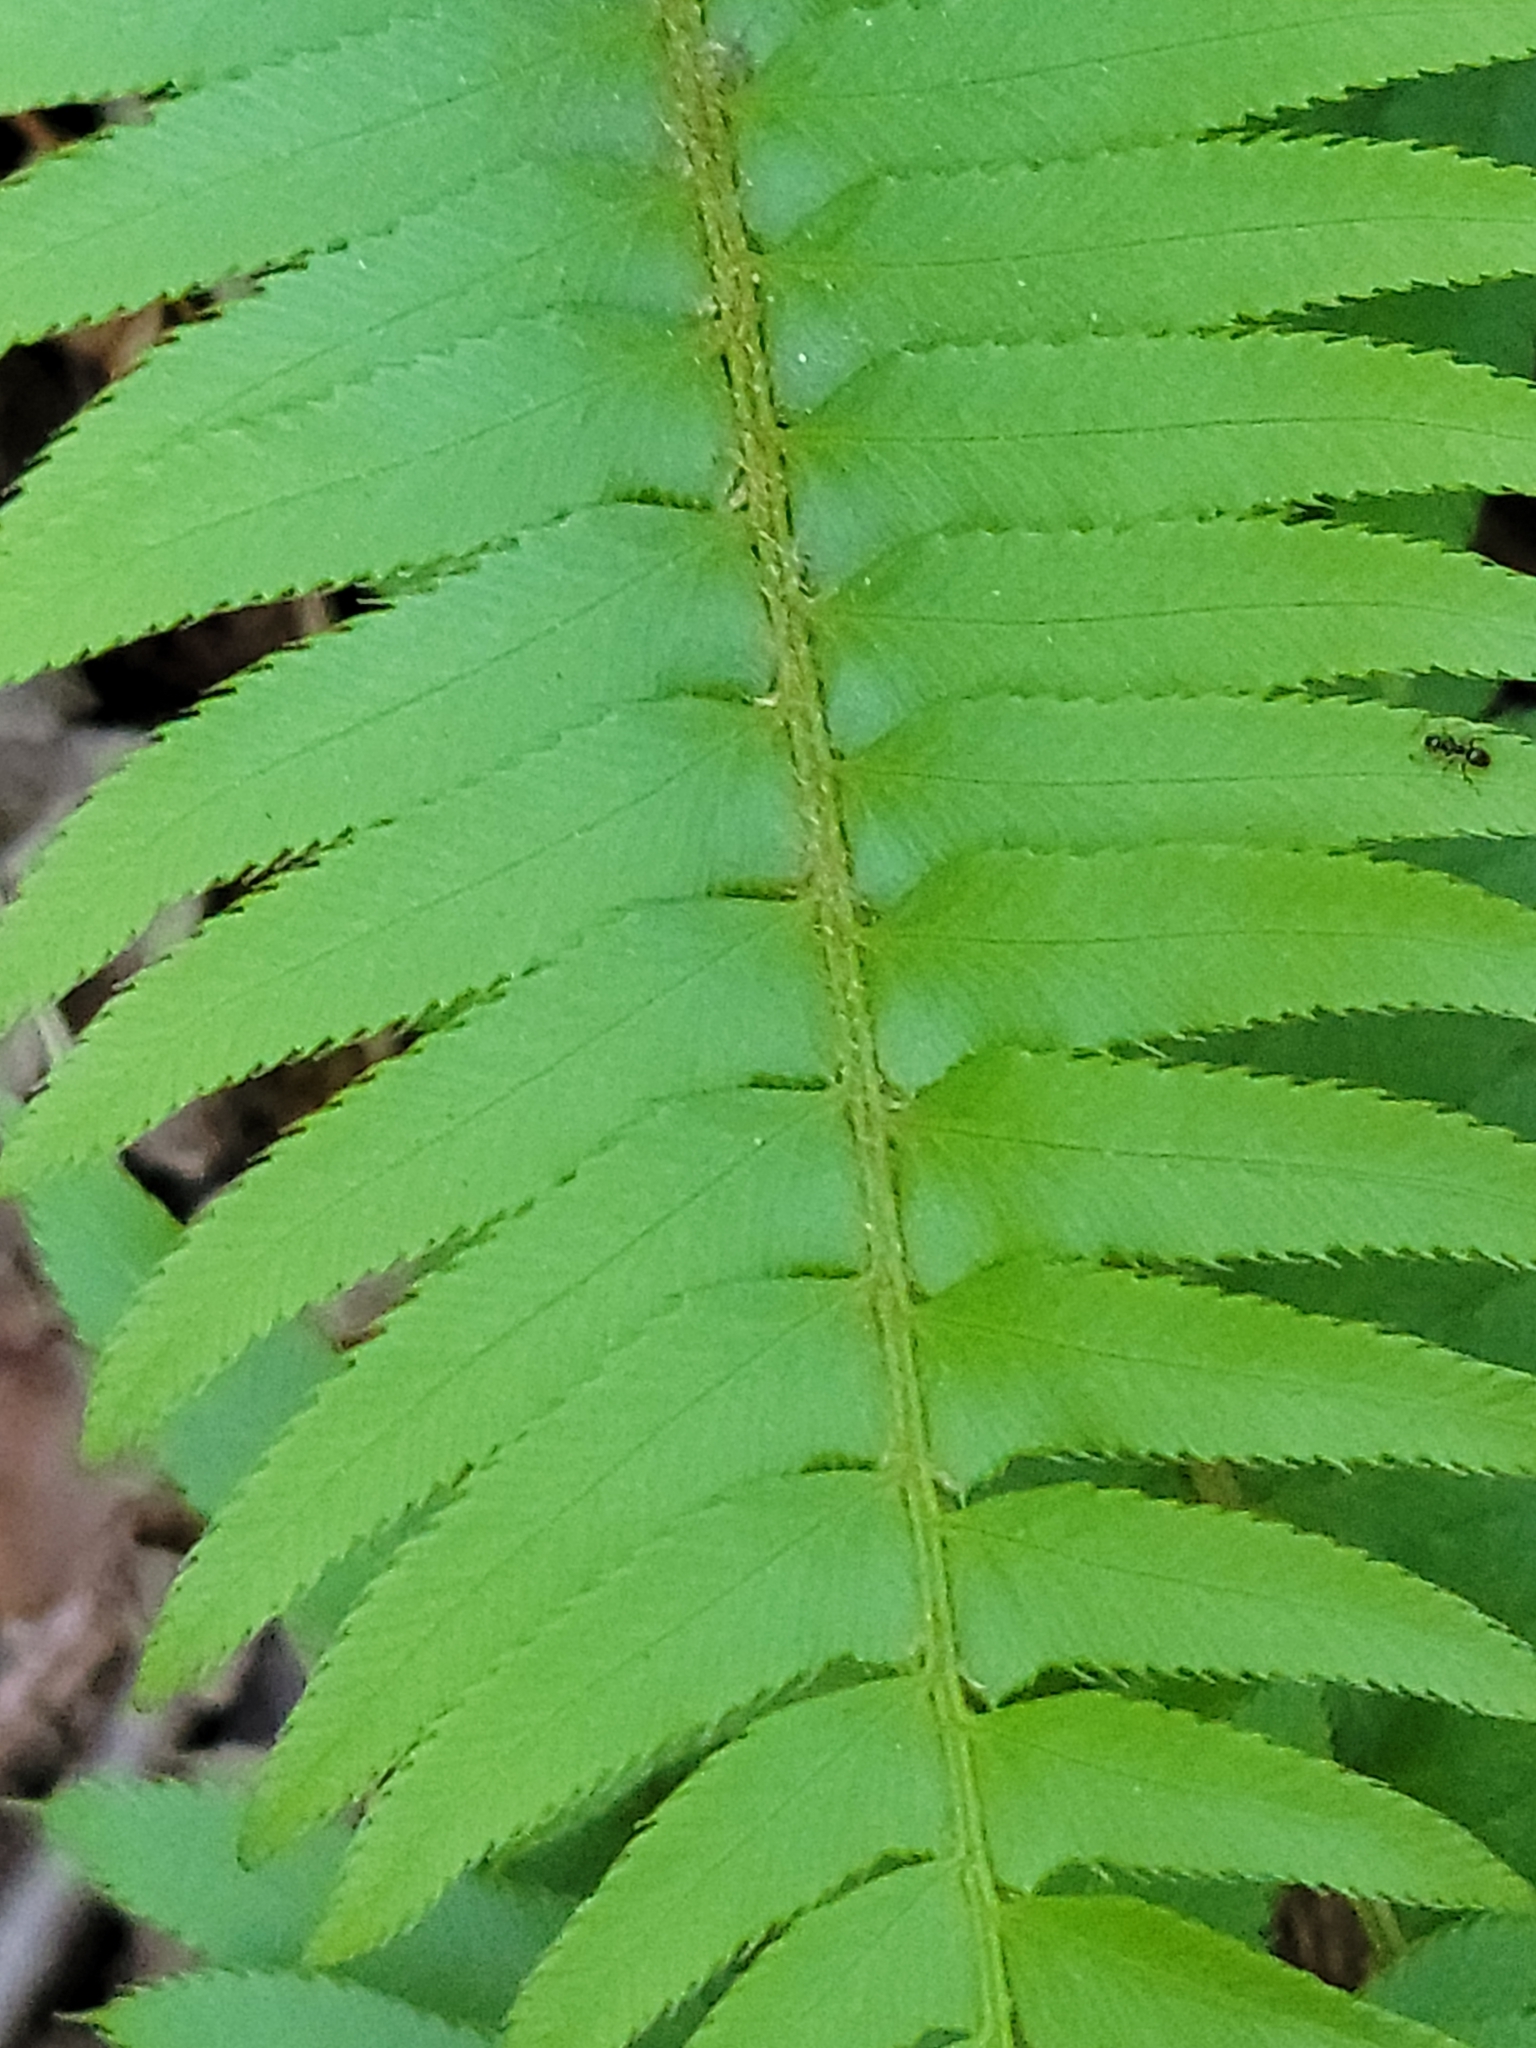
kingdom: Plantae
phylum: Tracheophyta
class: Polypodiopsida
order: Polypodiales
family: Dryopteridaceae
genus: Polystichum
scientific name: Polystichum munitum
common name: Western sword-fern
